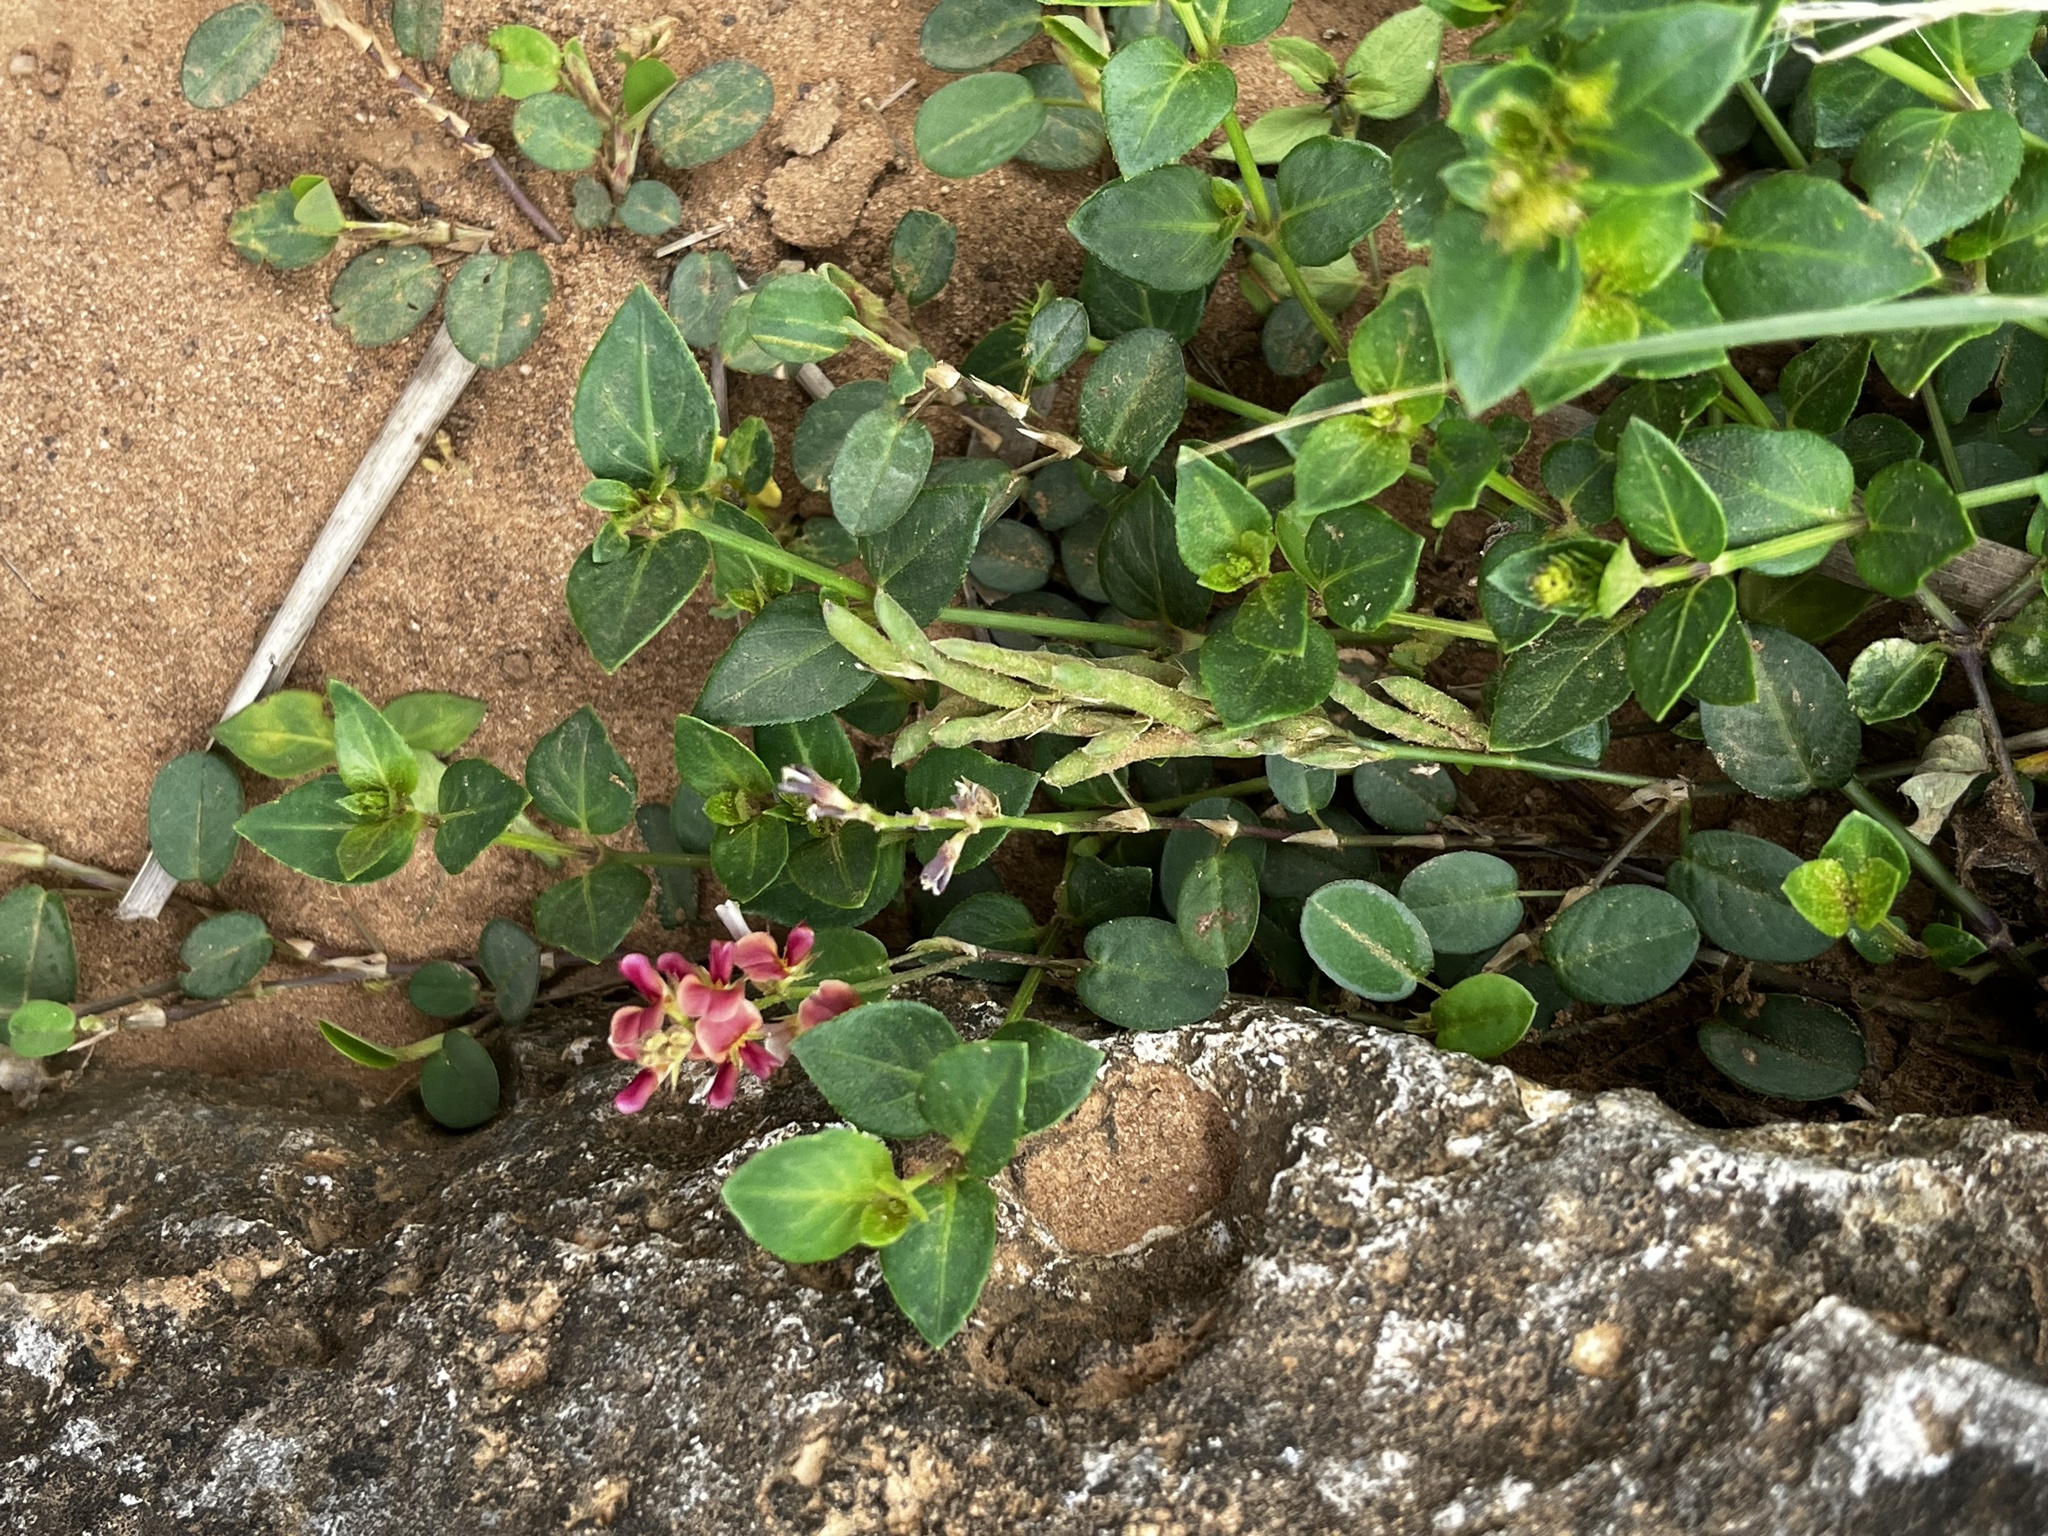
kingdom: Plantae
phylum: Tracheophyta
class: Magnoliopsida
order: Fabales
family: Fabaceae
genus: Alysicarpus
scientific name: Alysicarpus vaginalis
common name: White moneywort
